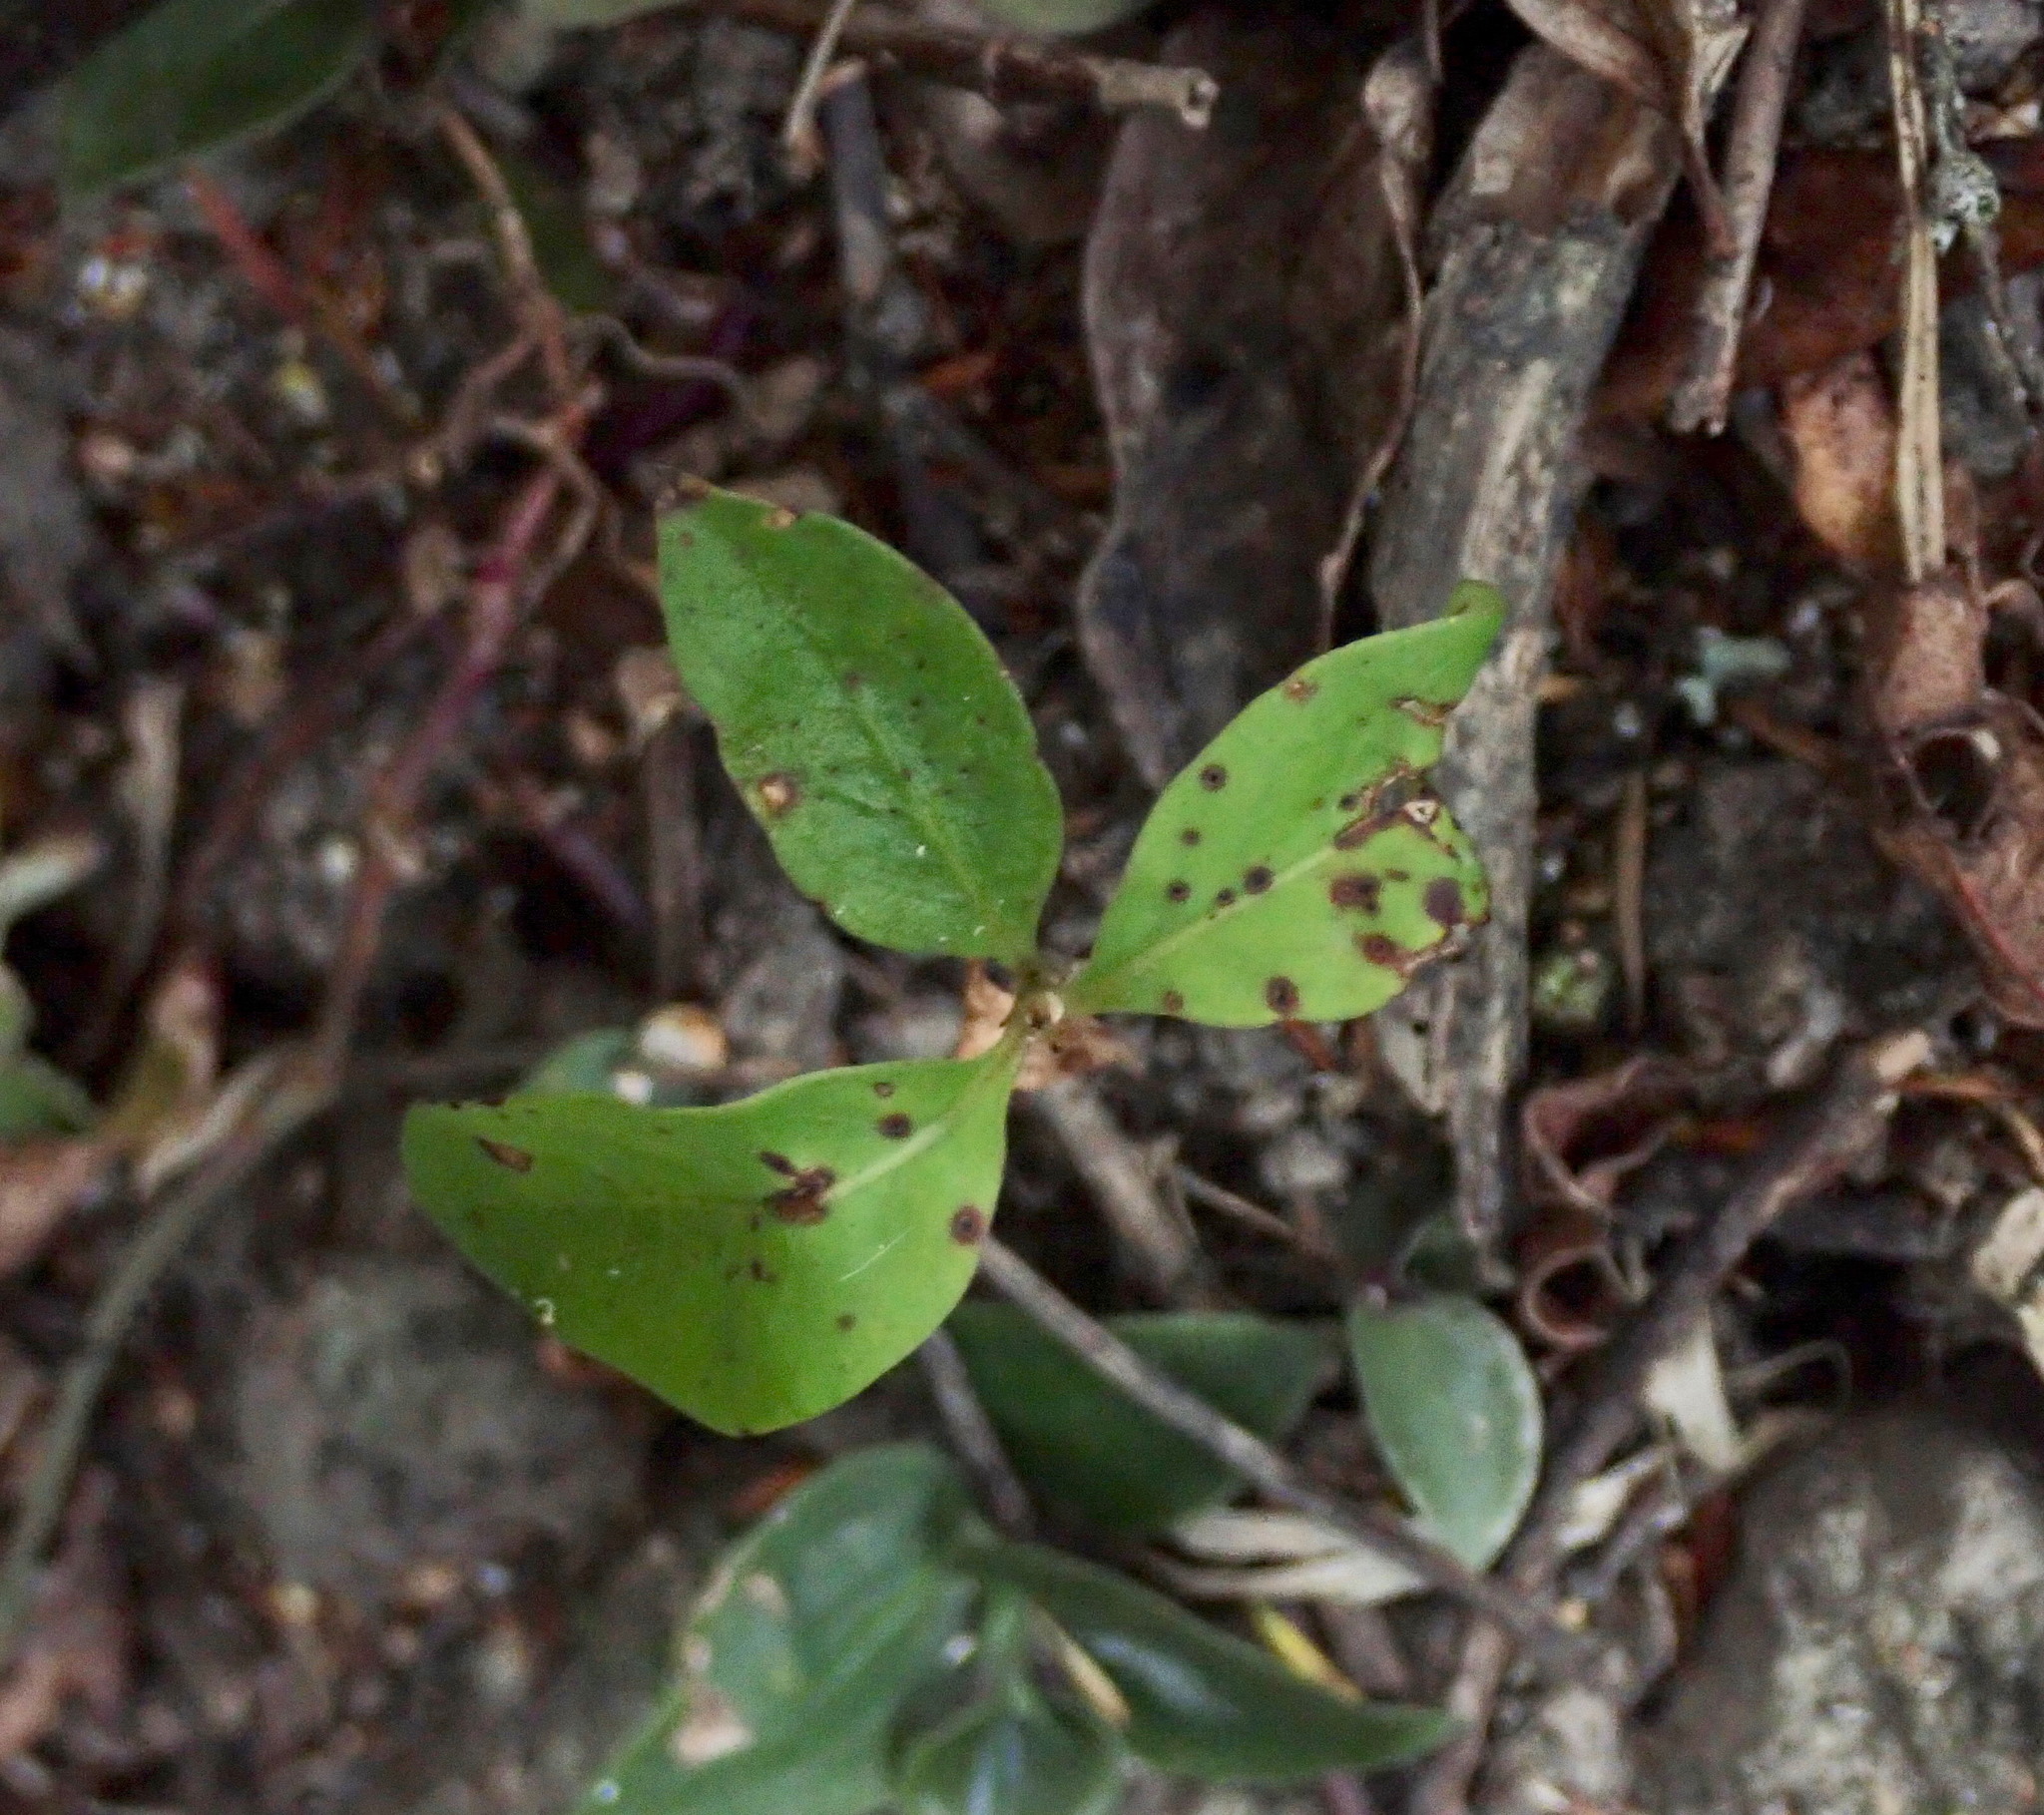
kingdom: Plantae
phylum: Tracheophyta
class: Magnoliopsida
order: Gentianales
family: Rubiaceae
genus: Coprosma
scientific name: Coprosma robusta
